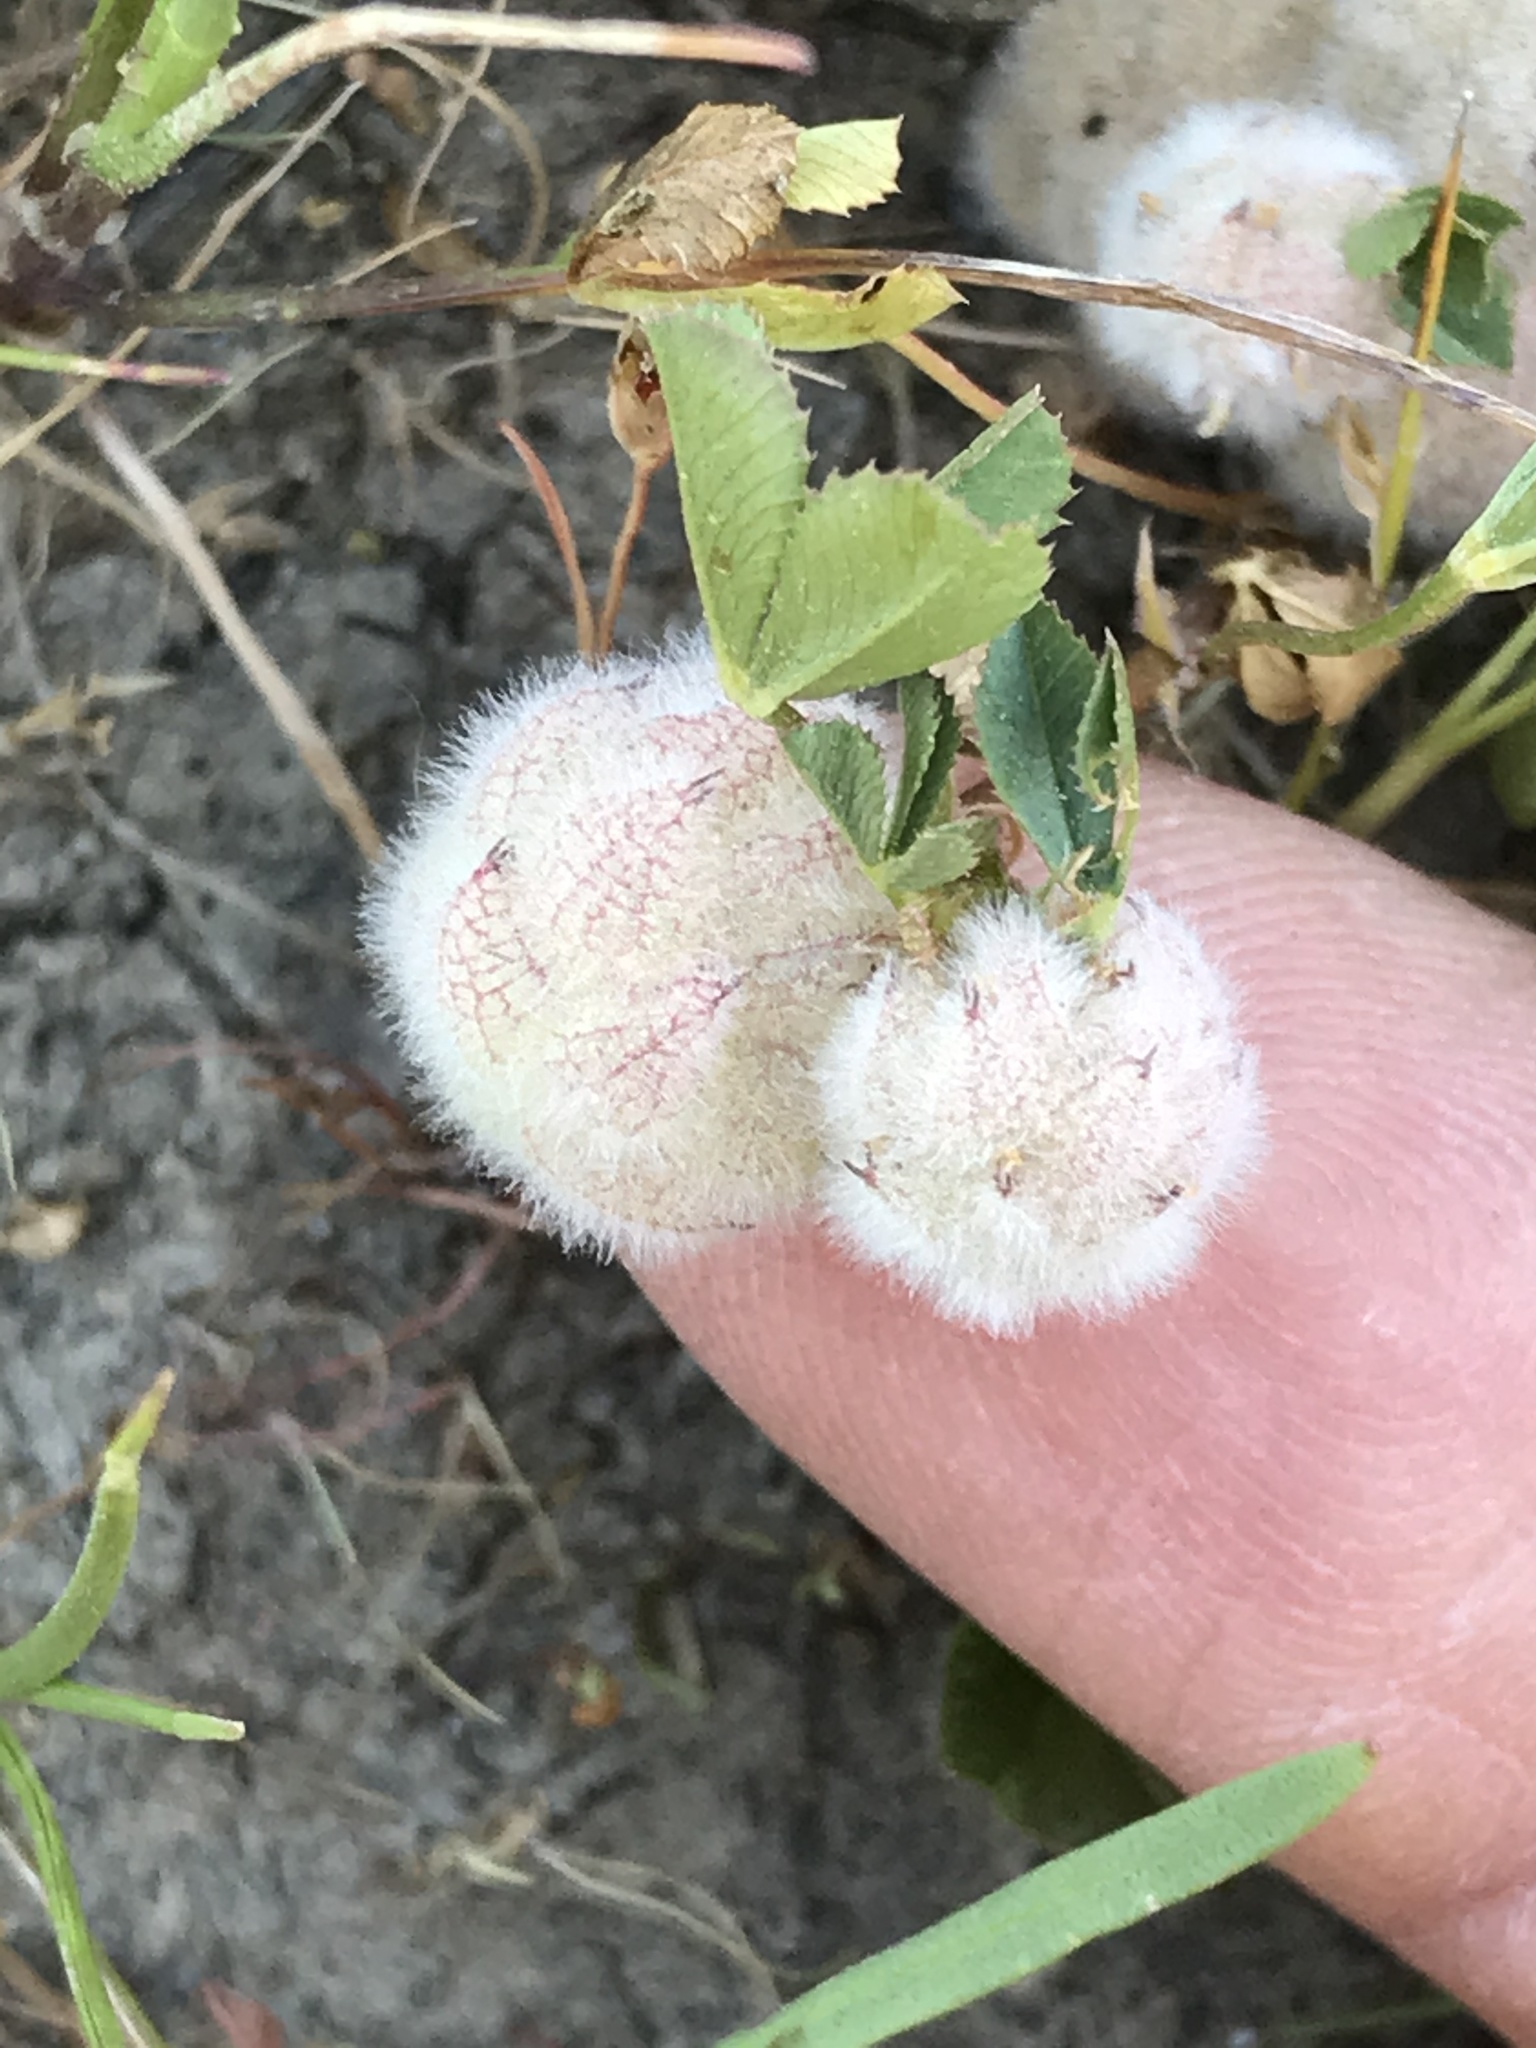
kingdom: Plantae
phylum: Tracheophyta
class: Magnoliopsida
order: Fabales
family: Fabaceae
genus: Trifolium
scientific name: Trifolium tomentosum
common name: Woolly clover
